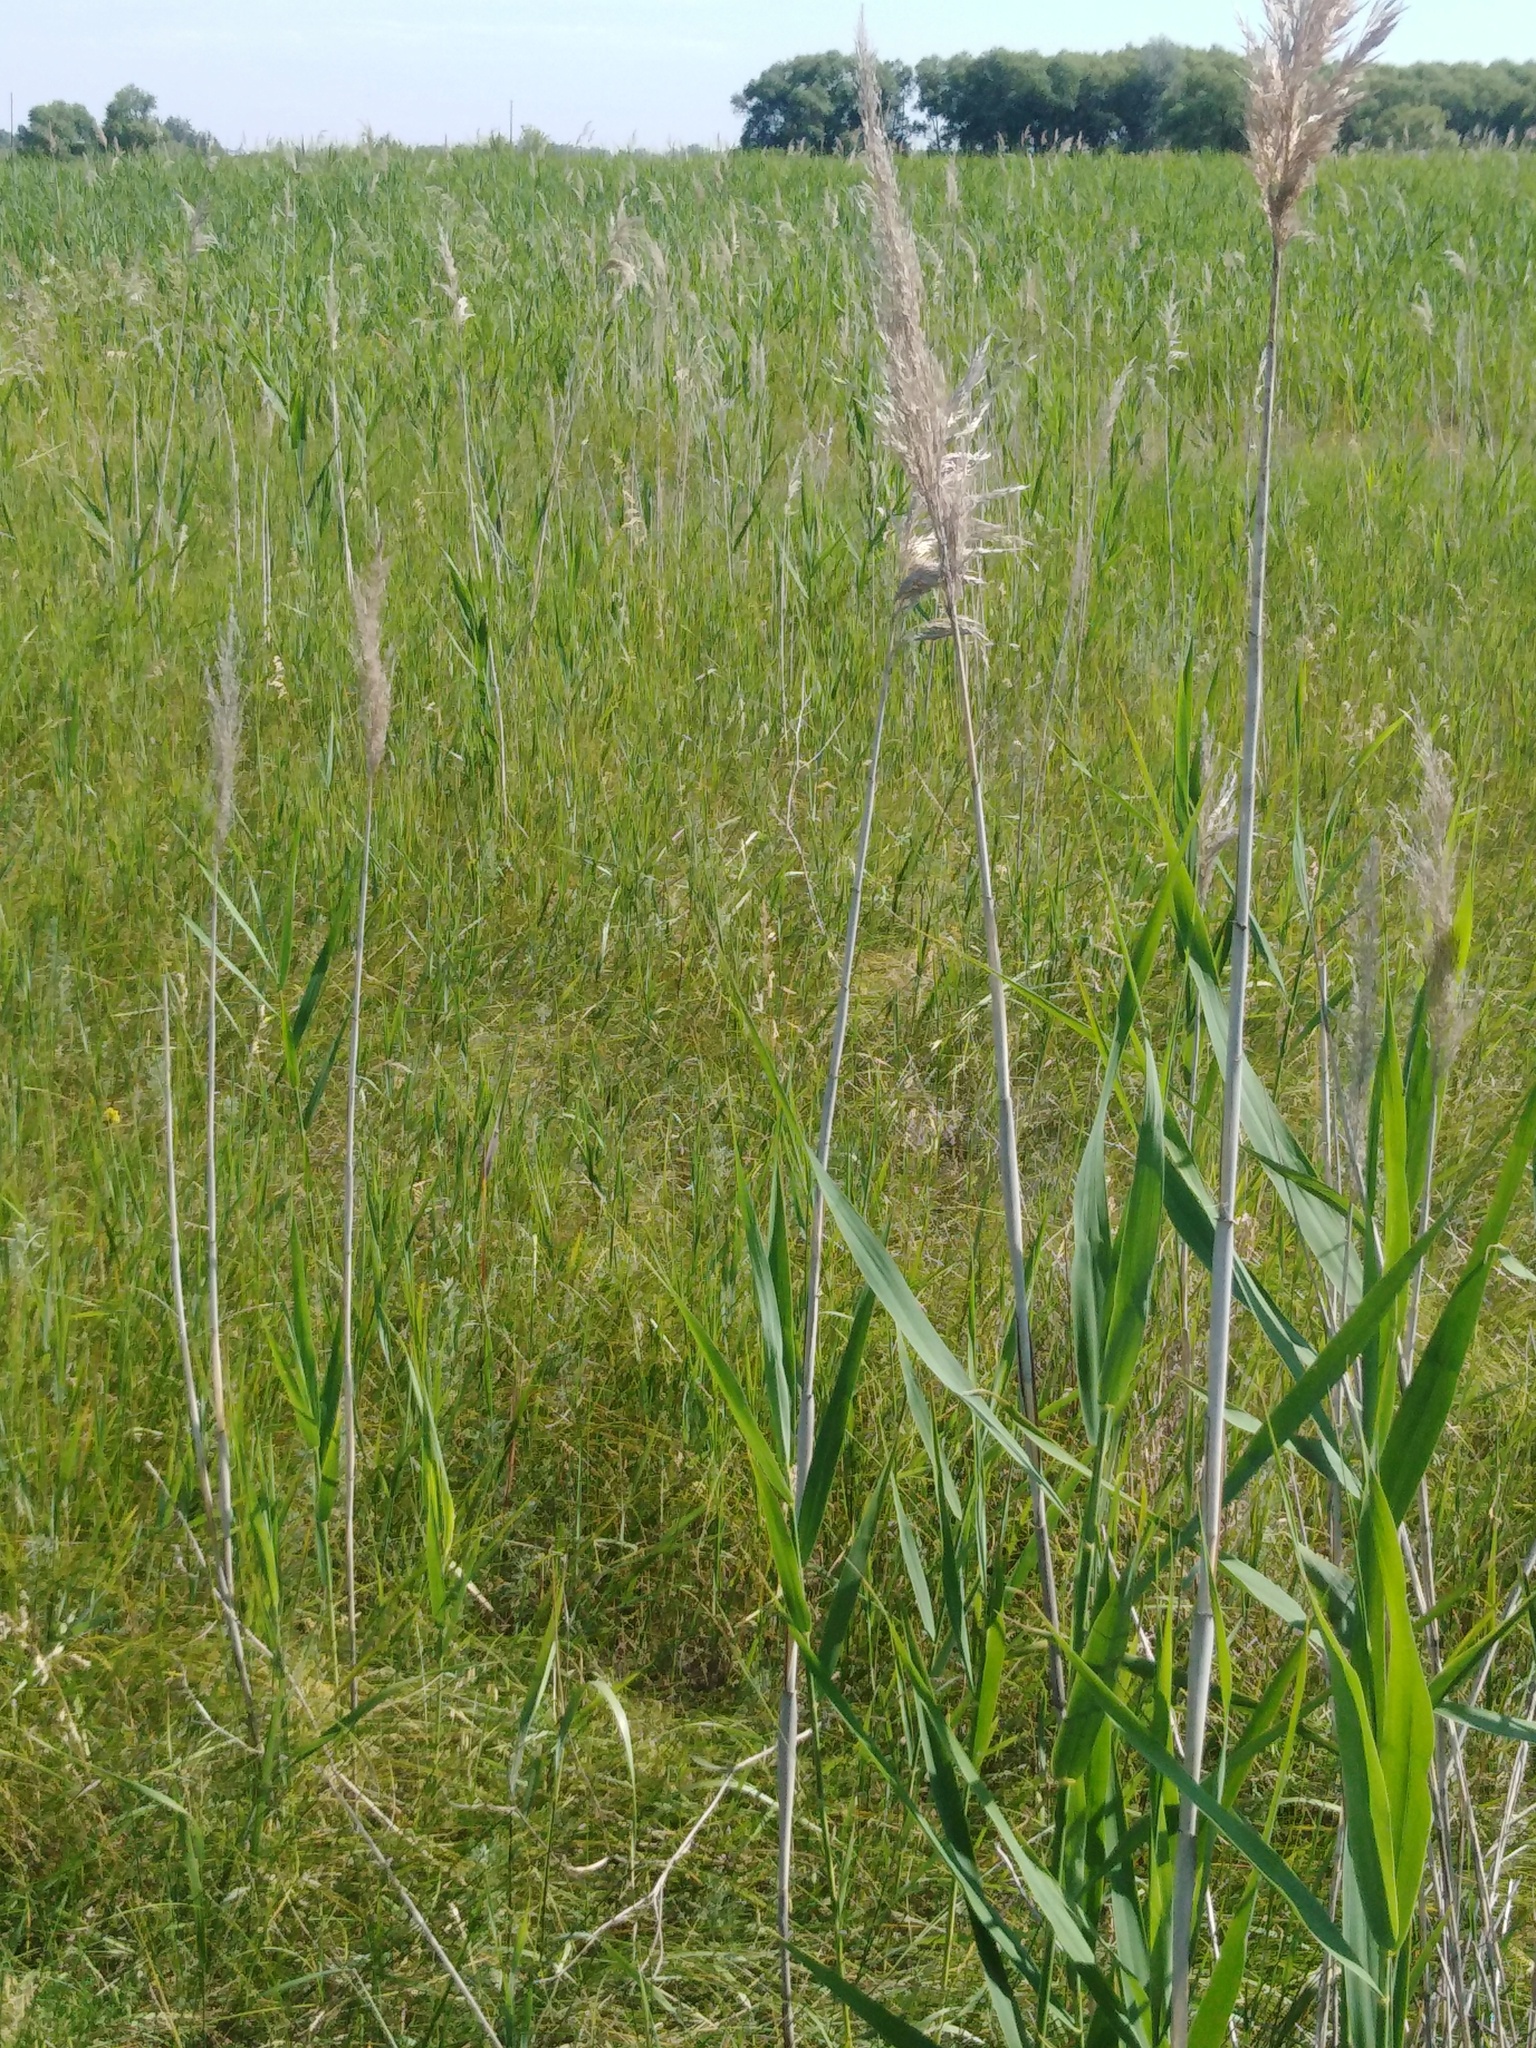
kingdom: Plantae
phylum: Tracheophyta
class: Liliopsida
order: Poales
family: Poaceae
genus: Phragmites
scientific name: Phragmites australis
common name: Common reed
